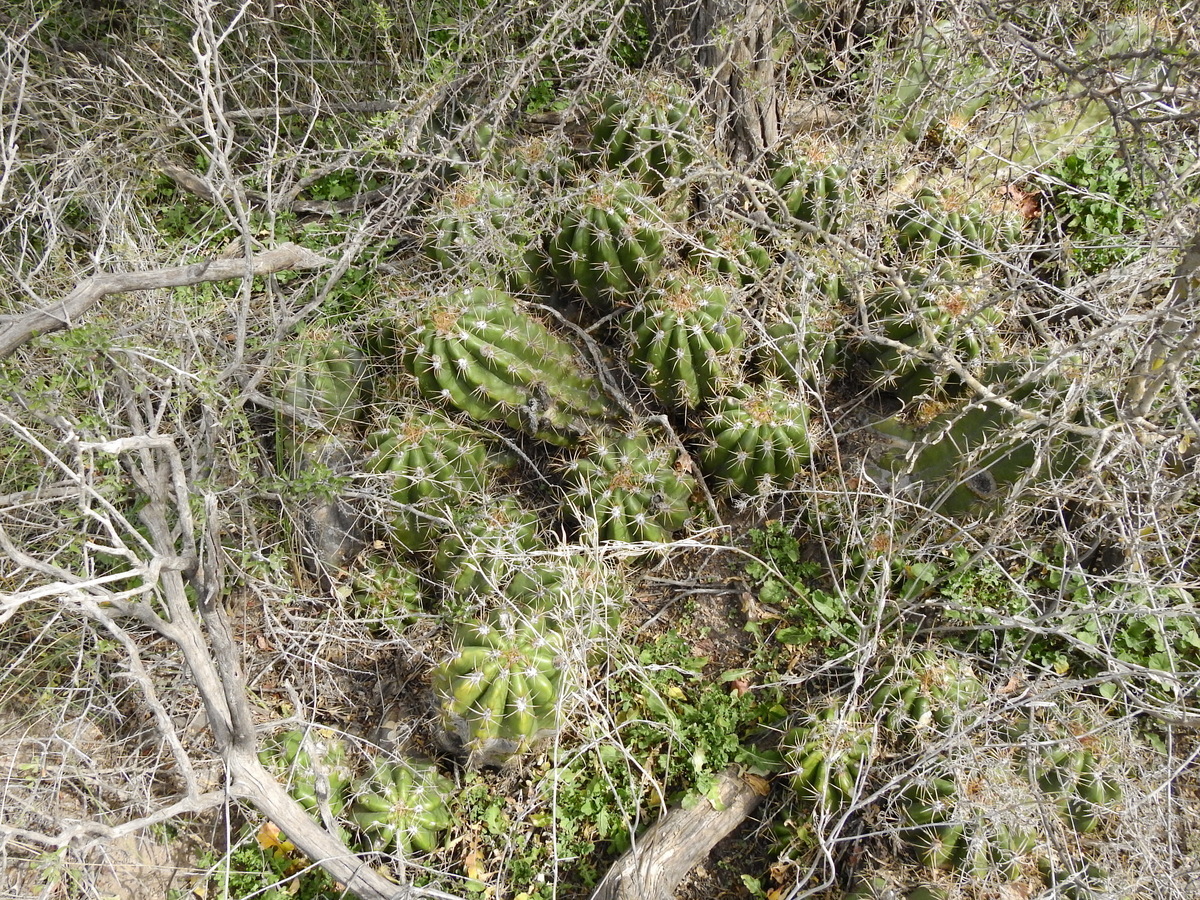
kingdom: Plantae
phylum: Tracheophyta
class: Magnoliopsida
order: Caryophyllales
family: Cactaceae
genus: Soehrensia
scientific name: Soehrensia candicans
